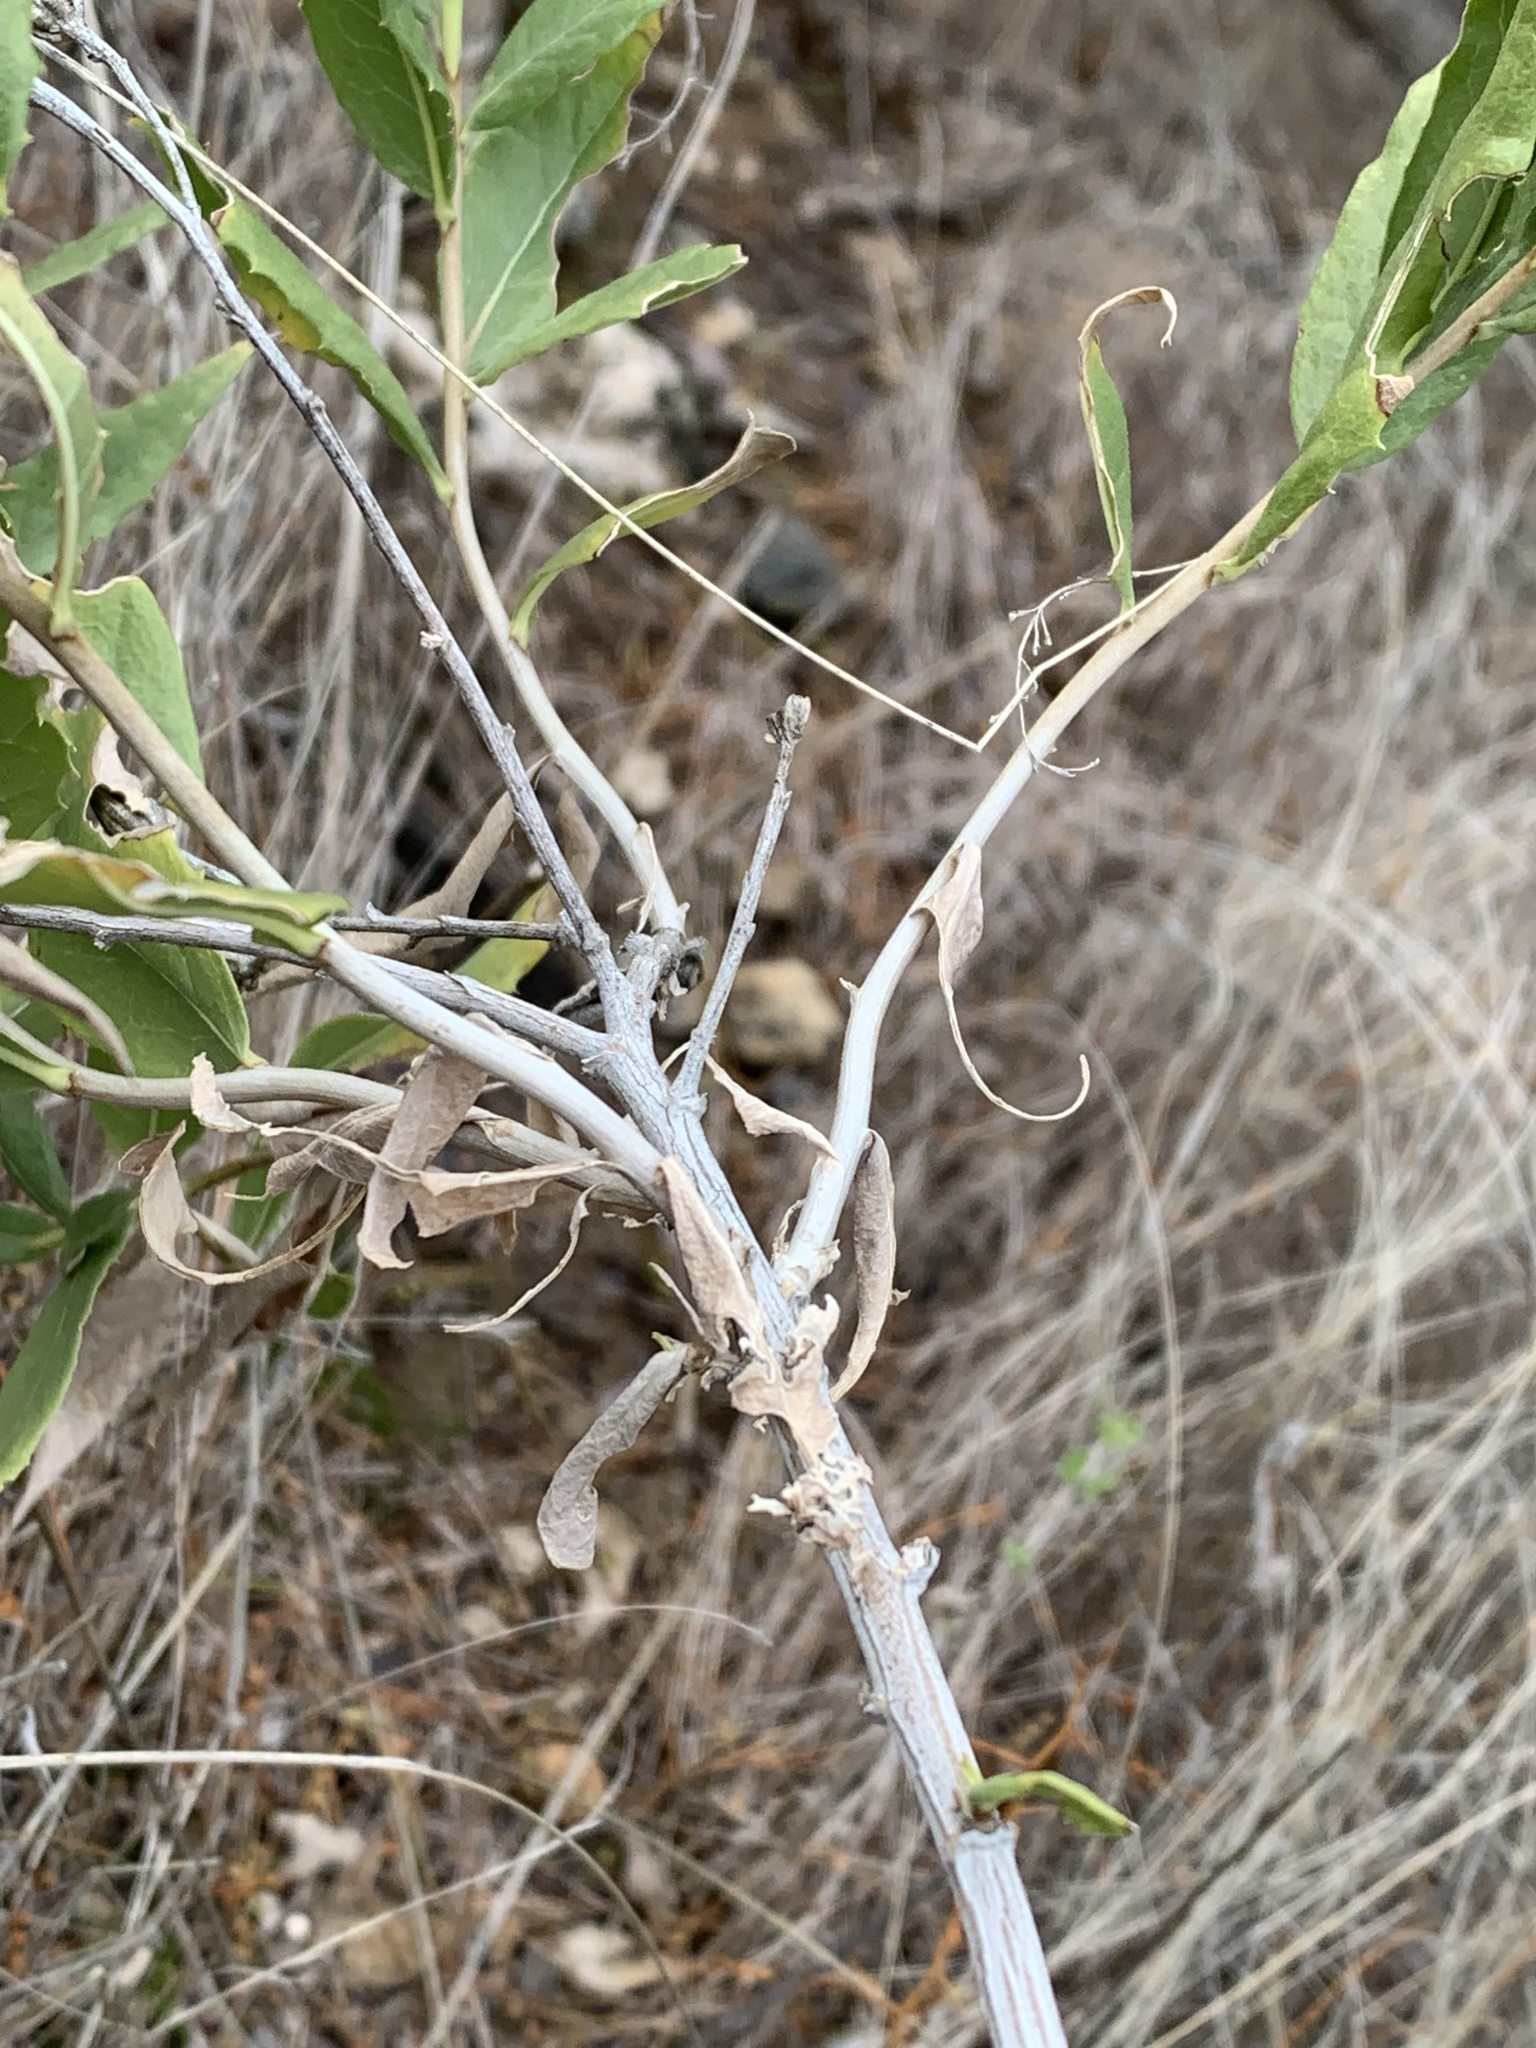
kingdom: Plantae
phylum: Tracheophyta
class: Magnoliopsida
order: Asterales
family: Asteraceae
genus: Trixis
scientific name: Trixis californica
